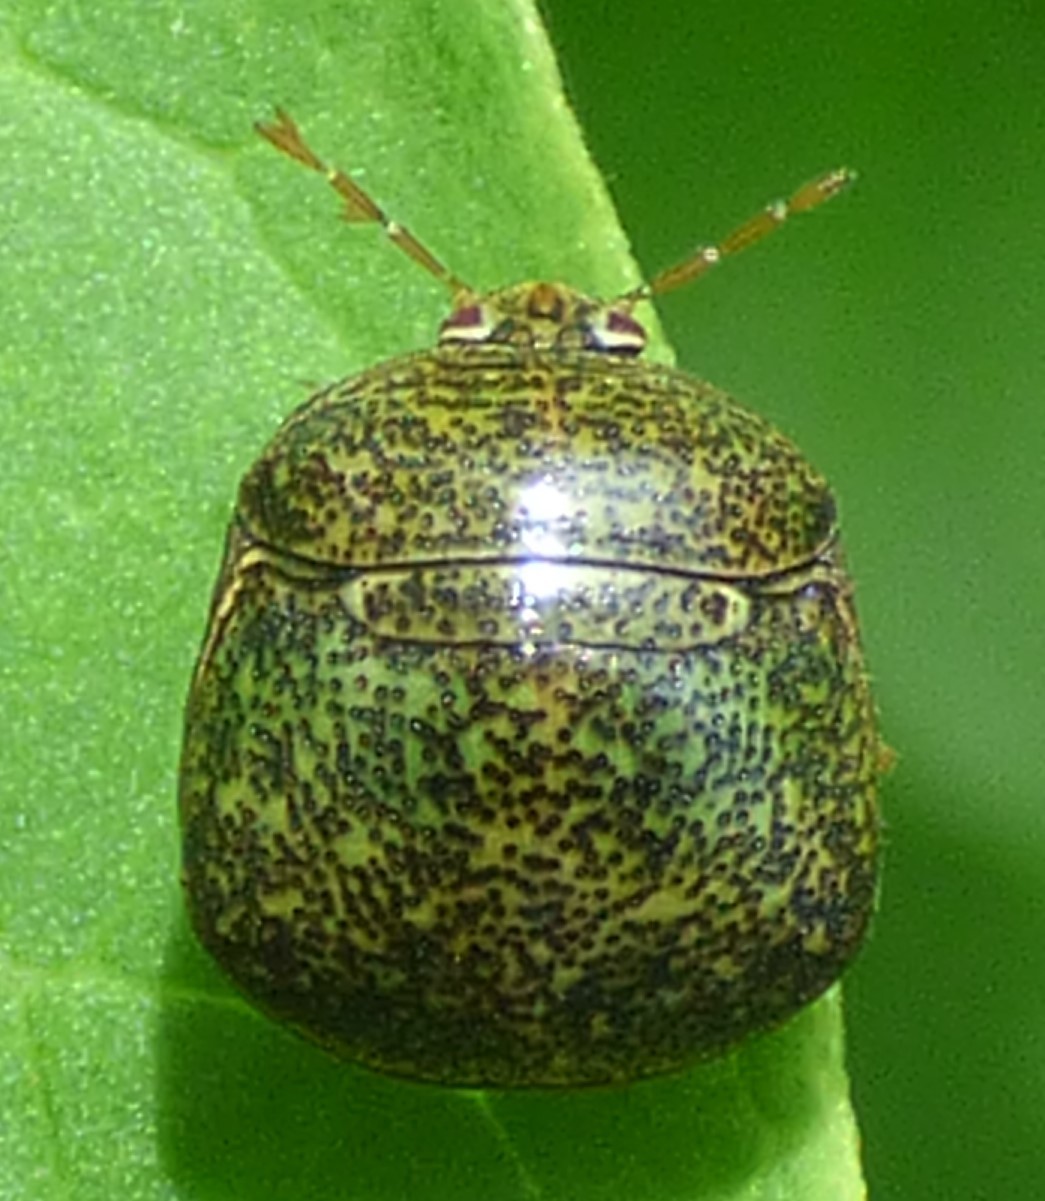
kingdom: Animalia
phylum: Arthropoda
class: Insecta
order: Hemiptera
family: Plataspidae
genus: Megacopta
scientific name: Megacopta cribraria
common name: Bean plataspid
